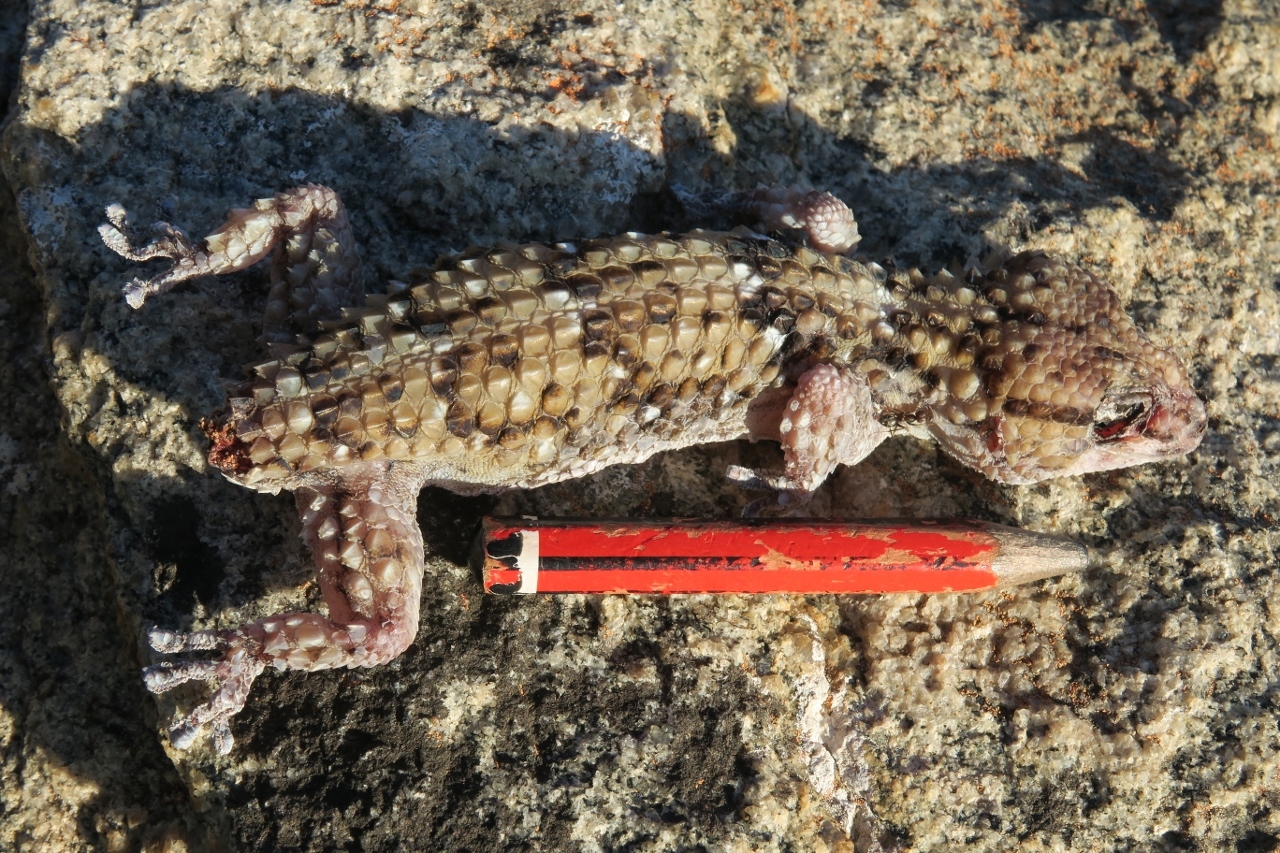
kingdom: Animalia
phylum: Chordata
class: Squamata
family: Gekkonidae
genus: Chondrodactylus
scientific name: Chondrodactylus bibronii
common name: Bibron's gecko
